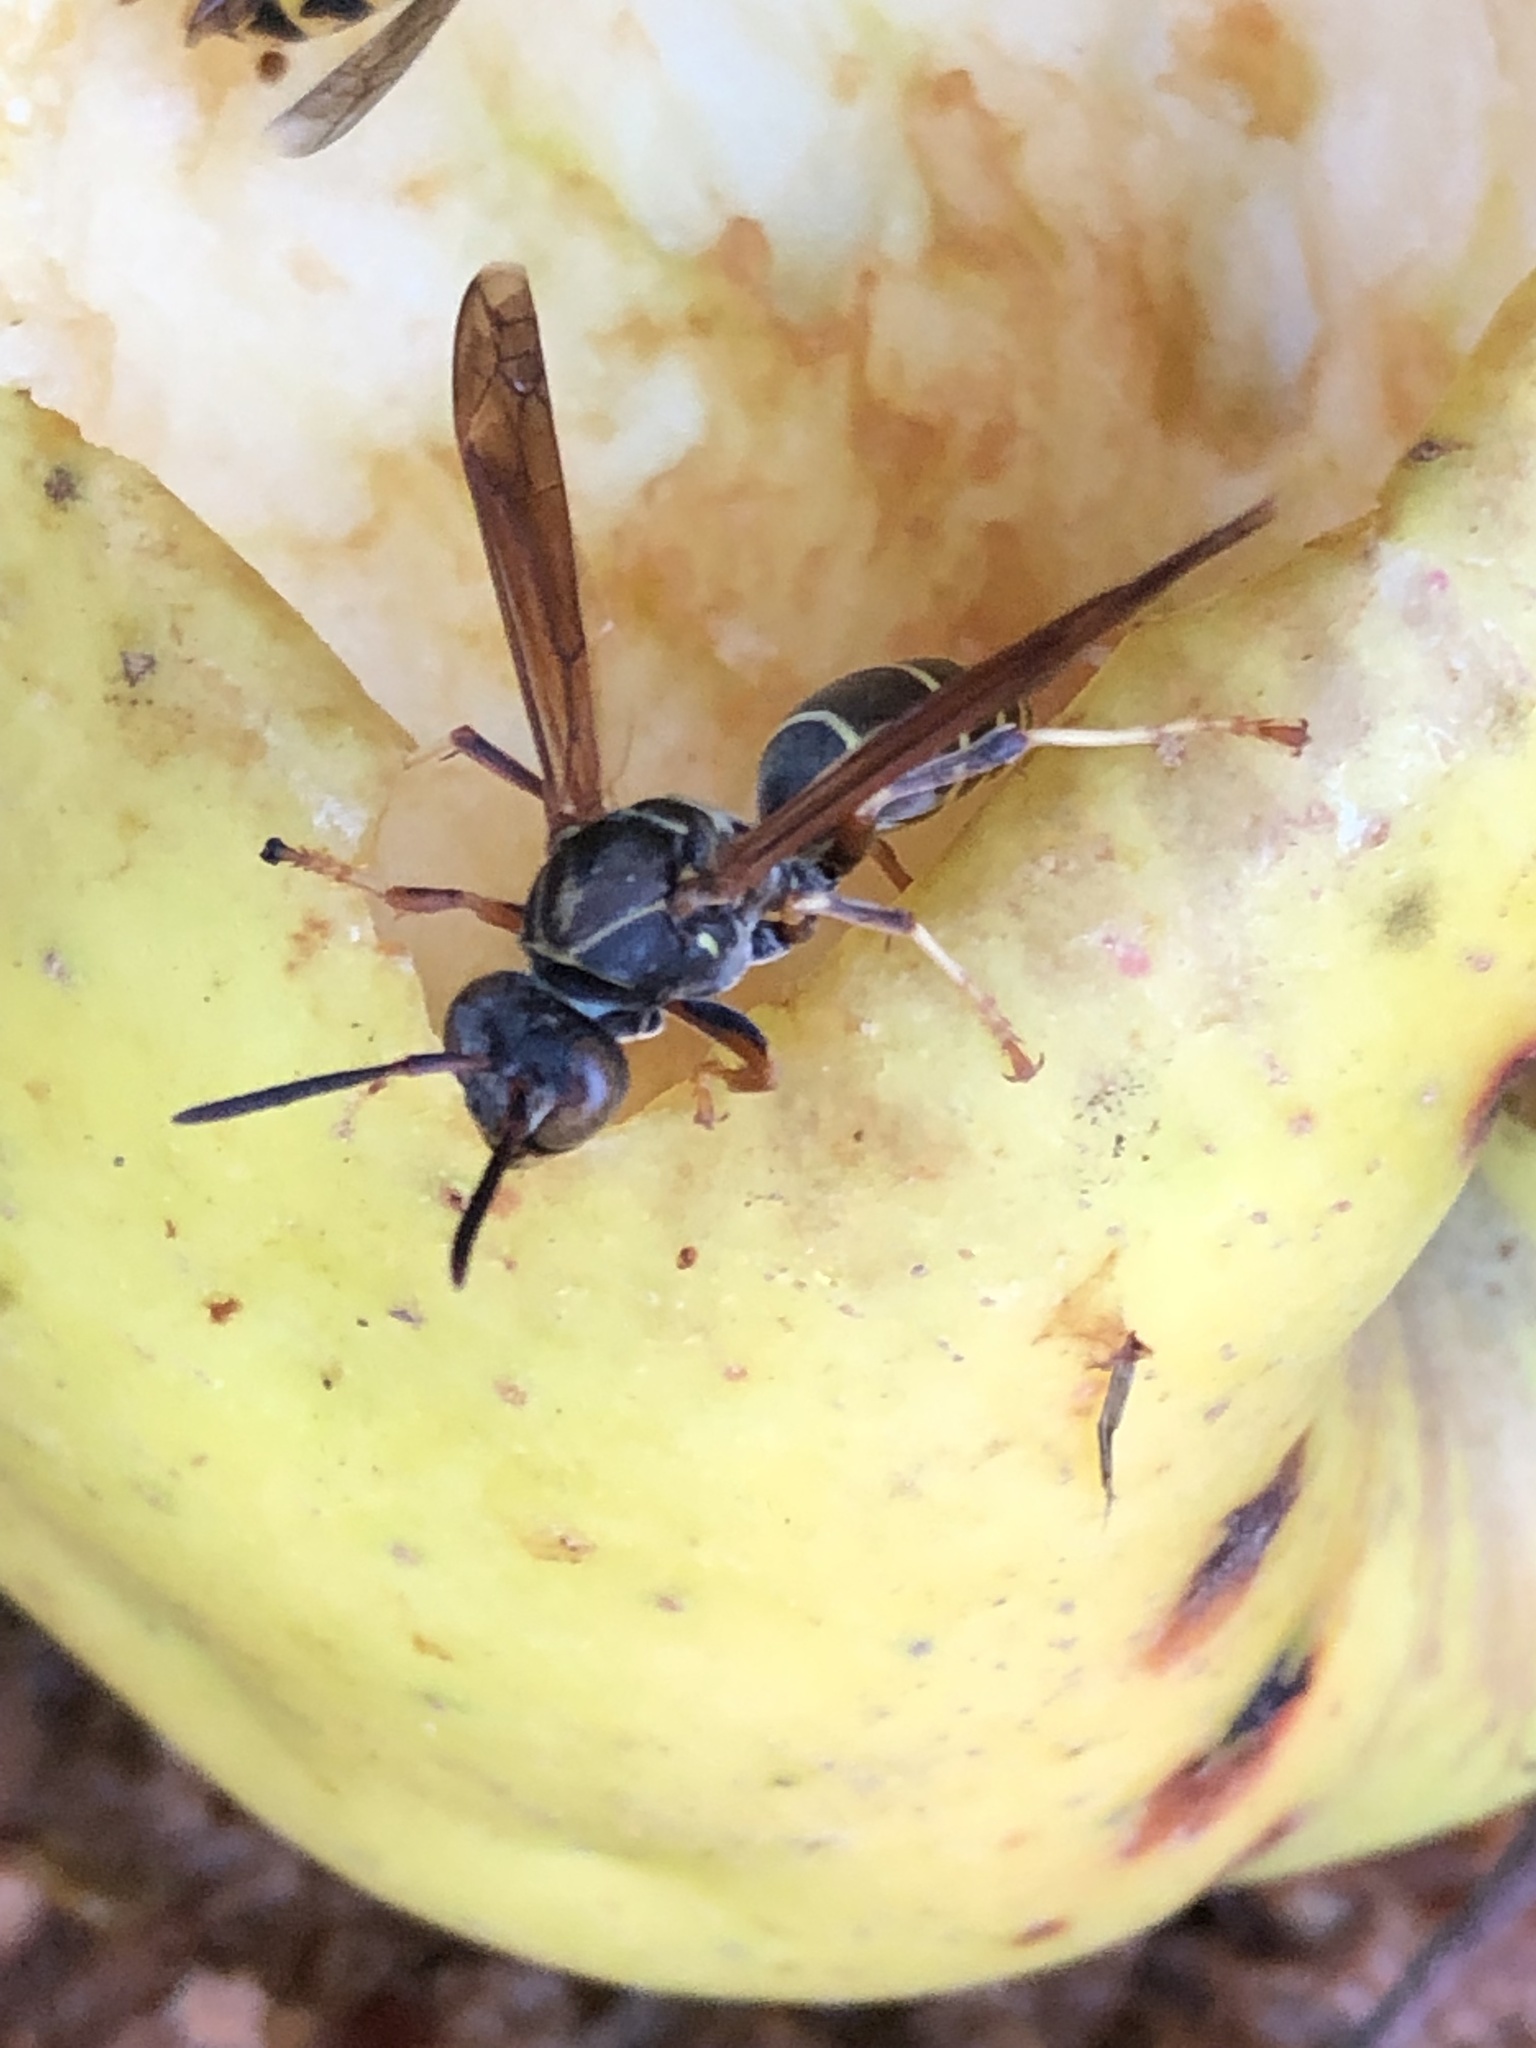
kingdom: Animalia
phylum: Arthropoda
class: Insecta
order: Hymenoptera
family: Eumenidae
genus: Polistes
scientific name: Polistes fuscatus
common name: Dark paper wasp
